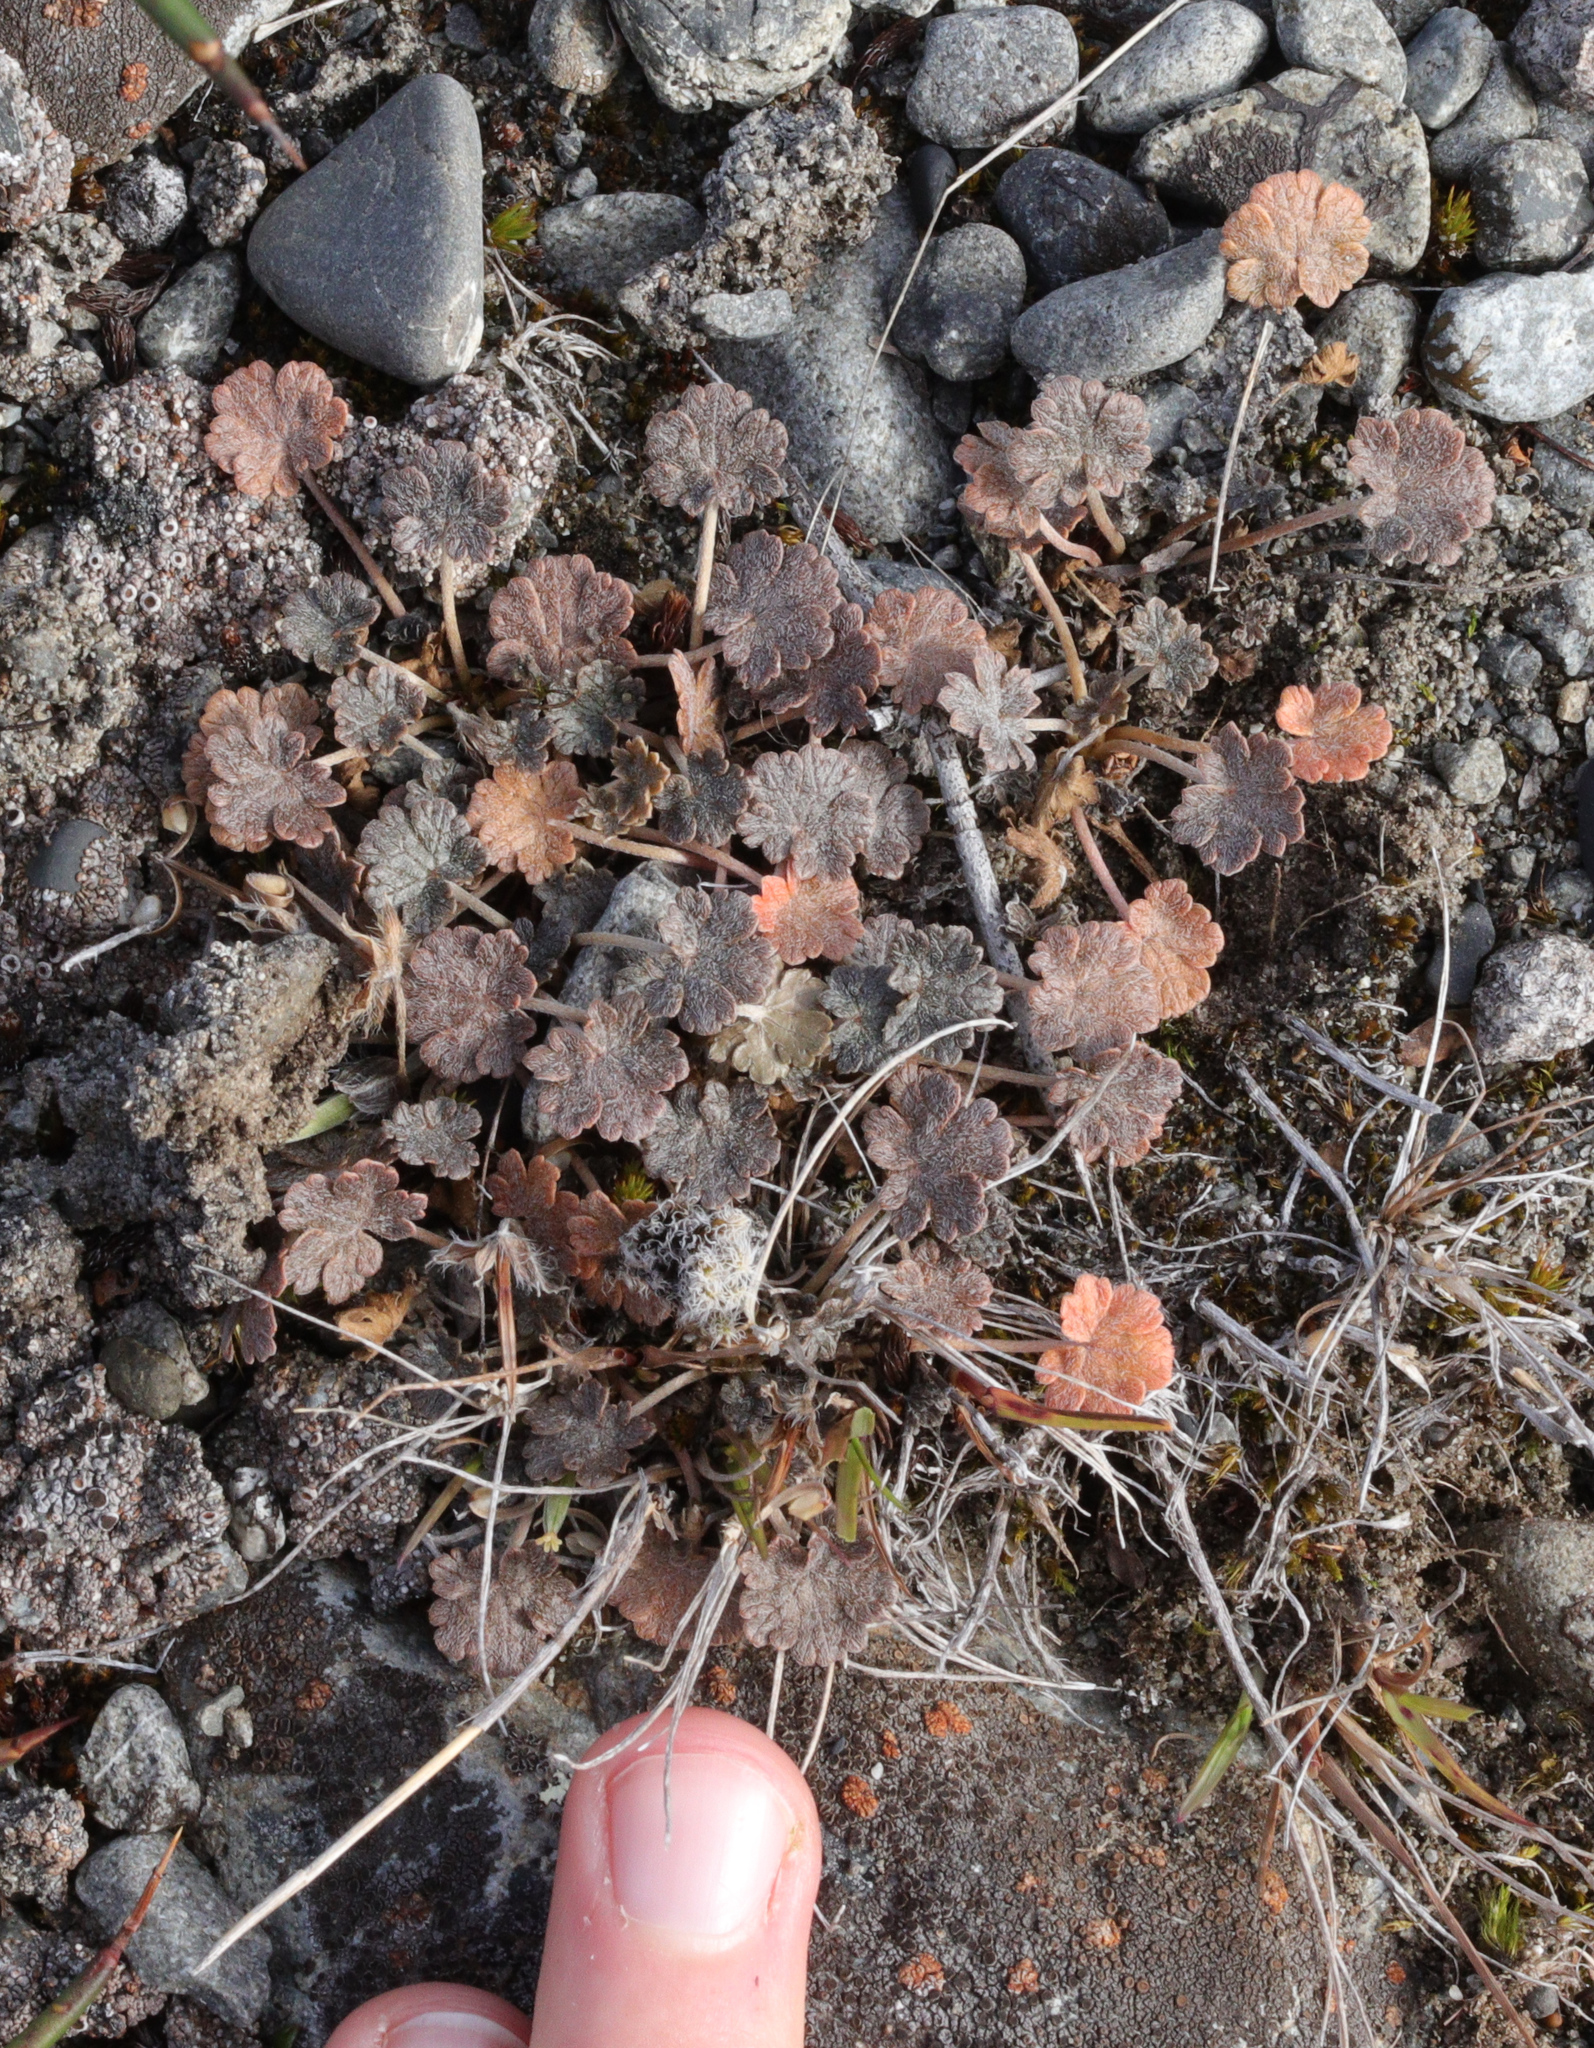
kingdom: Plantae
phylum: Tracheophyta
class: Magnoliopsida
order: Geraniales
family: Geraniaceae
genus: Geranium
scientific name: Geranium brevicaule
